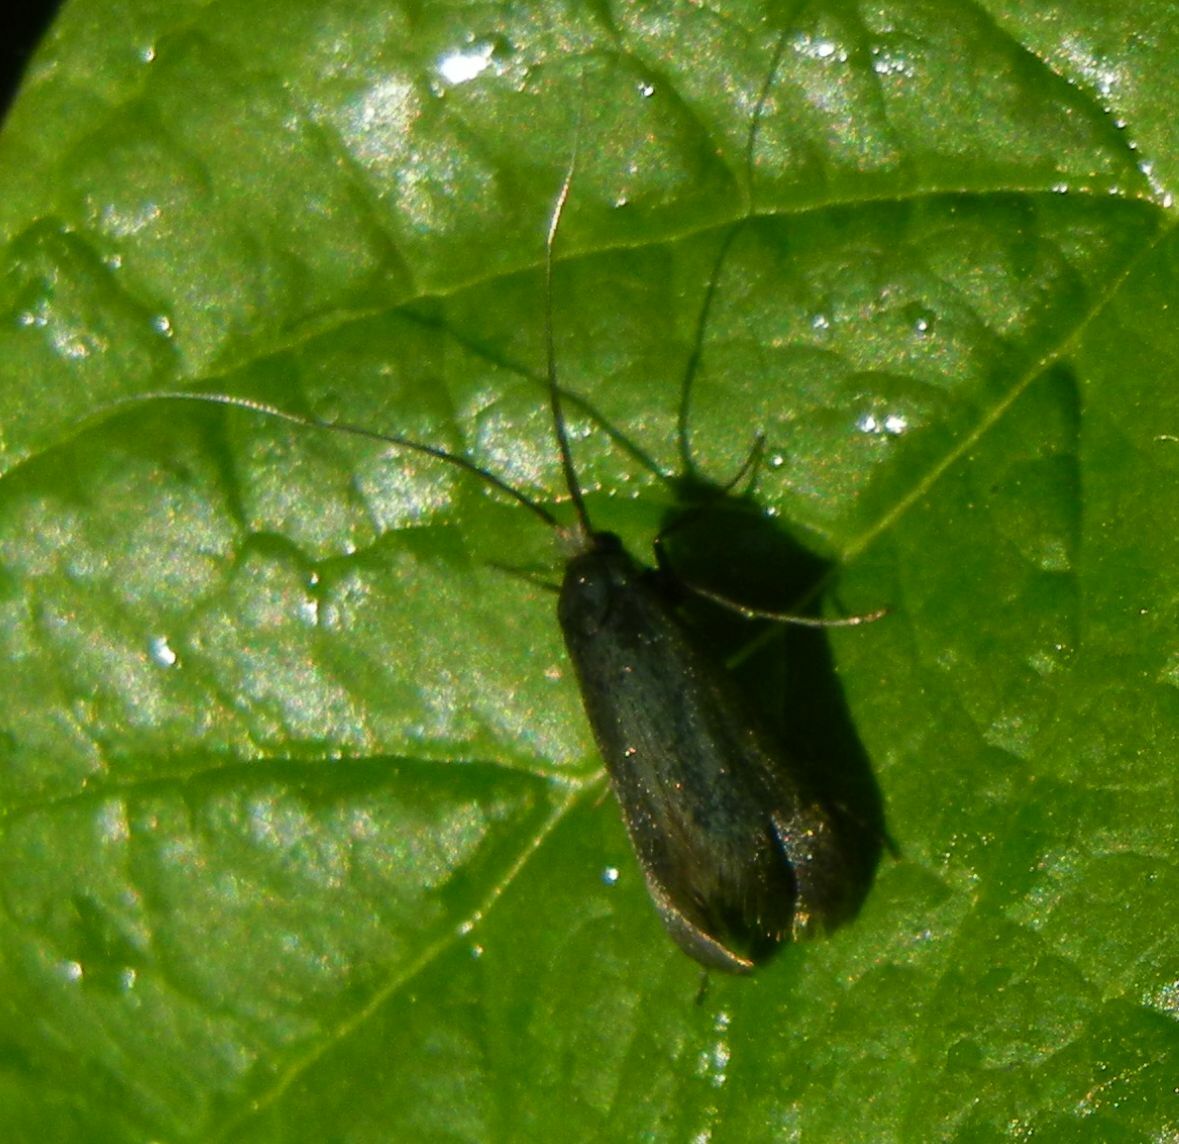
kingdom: Animalia
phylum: Arthropoda
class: Insecta
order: Lepidoptera
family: Adelidae
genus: Adela
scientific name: Adela viridella
